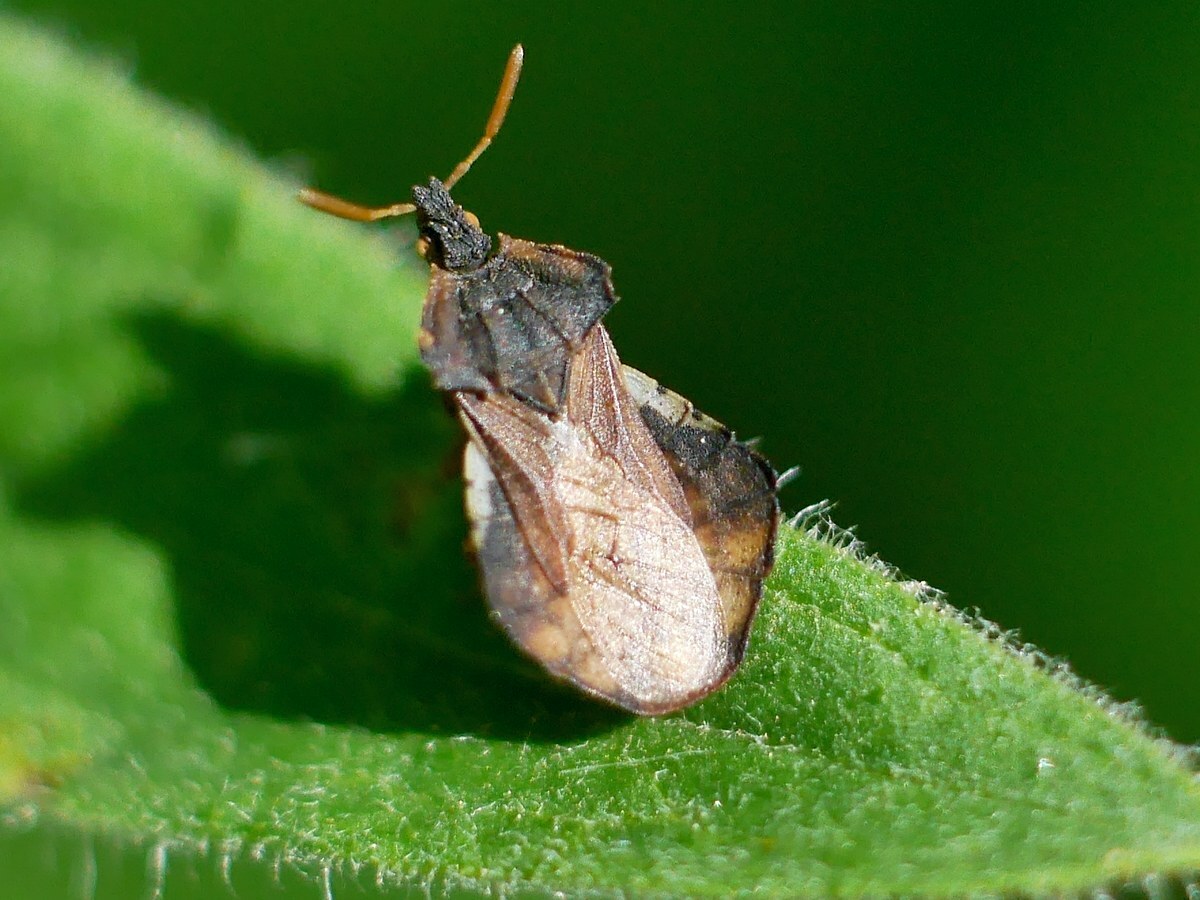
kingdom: Animalia
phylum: Arthropoda
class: Insecta
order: Hemiptera
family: Reduviidae
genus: Phymata
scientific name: Phymata crassipes
